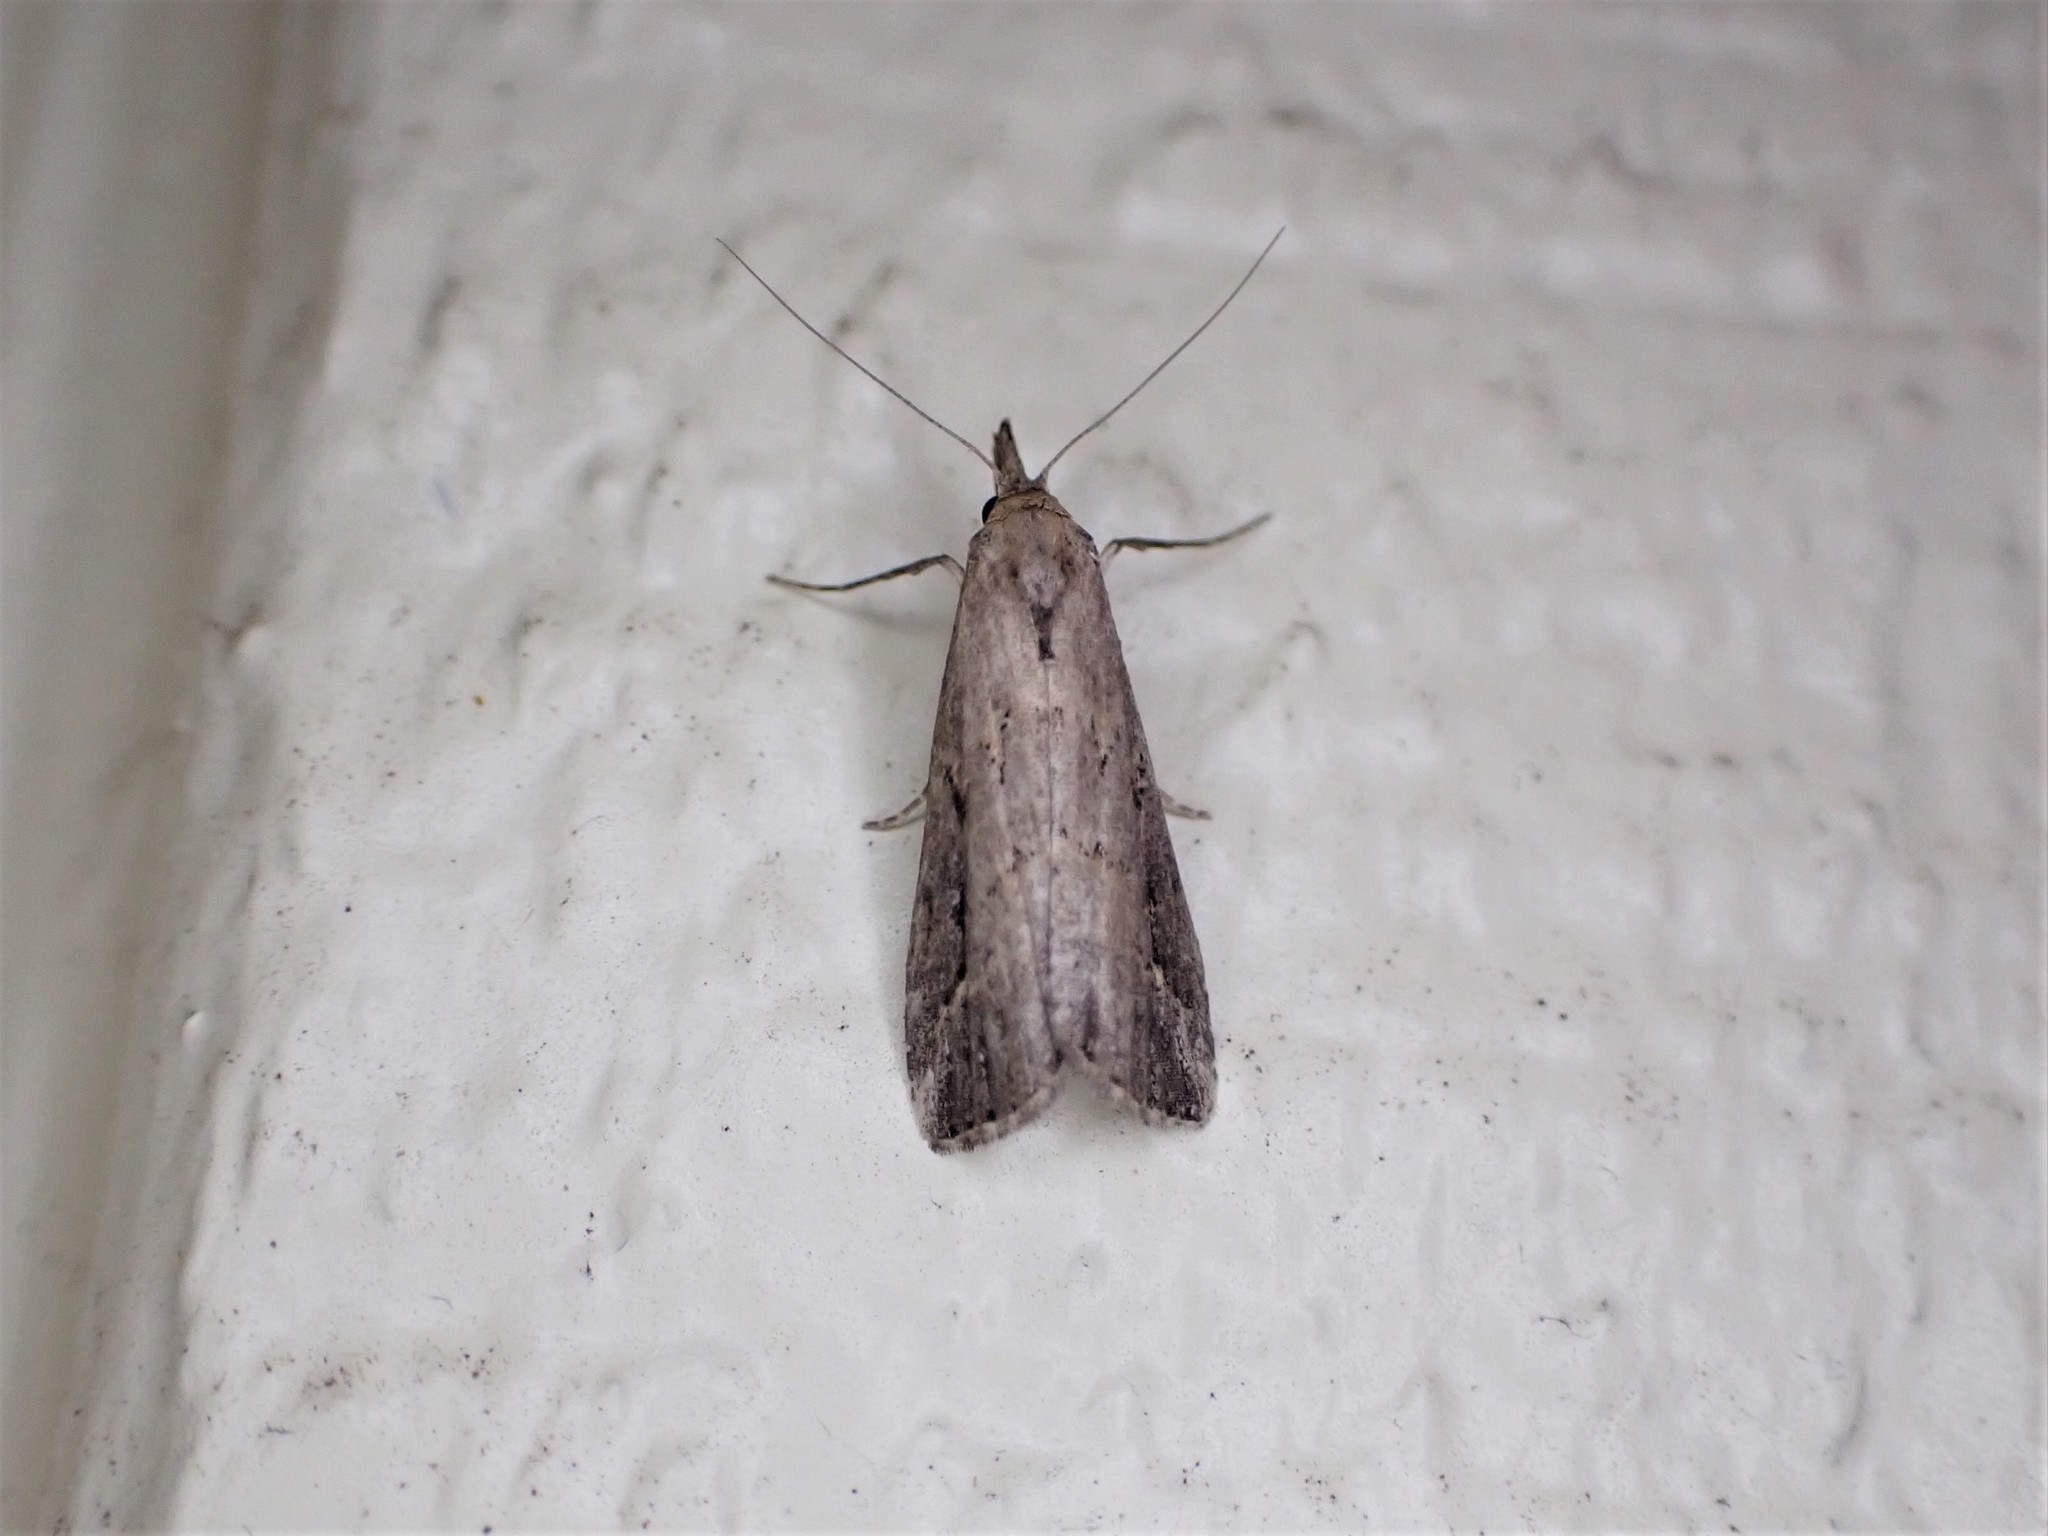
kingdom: Animalia
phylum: Arthropoda
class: Insecta
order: Lepidoptera
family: Erebidae
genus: Schrankia
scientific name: Schrankia costaestrigalis
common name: Pinion-streaked snout
